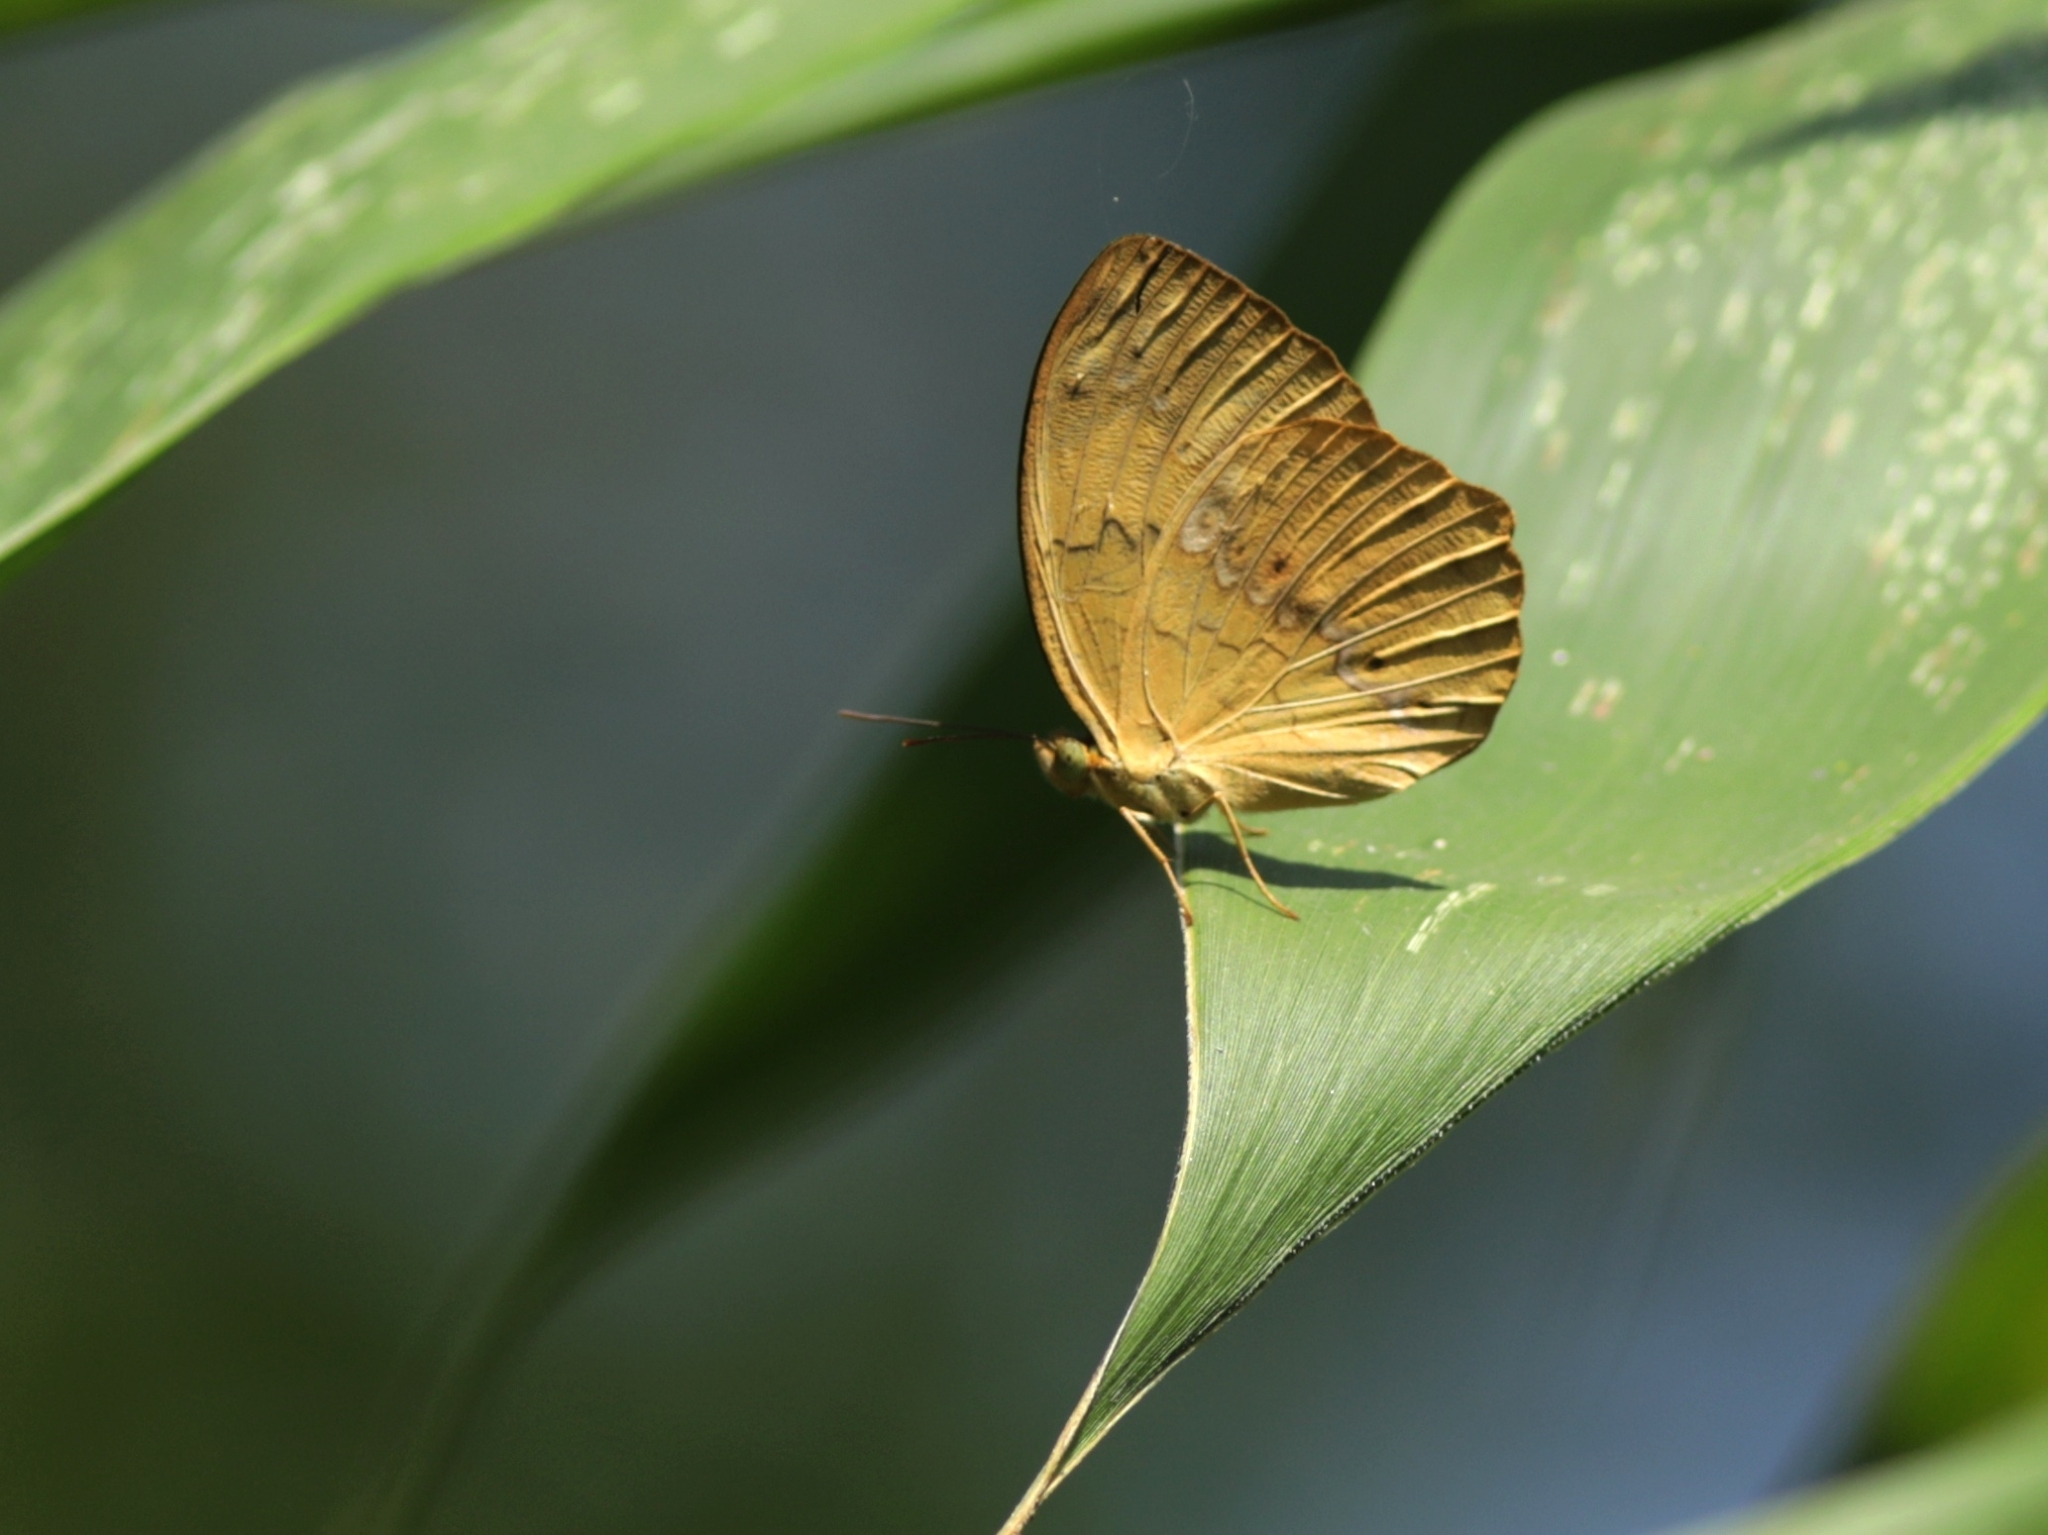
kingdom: Animalia
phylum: Arthropoda
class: Insecta
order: Lepidoptera
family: Nymphalidae
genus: Cupha
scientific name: Cupha erymanthis
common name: Rustic
